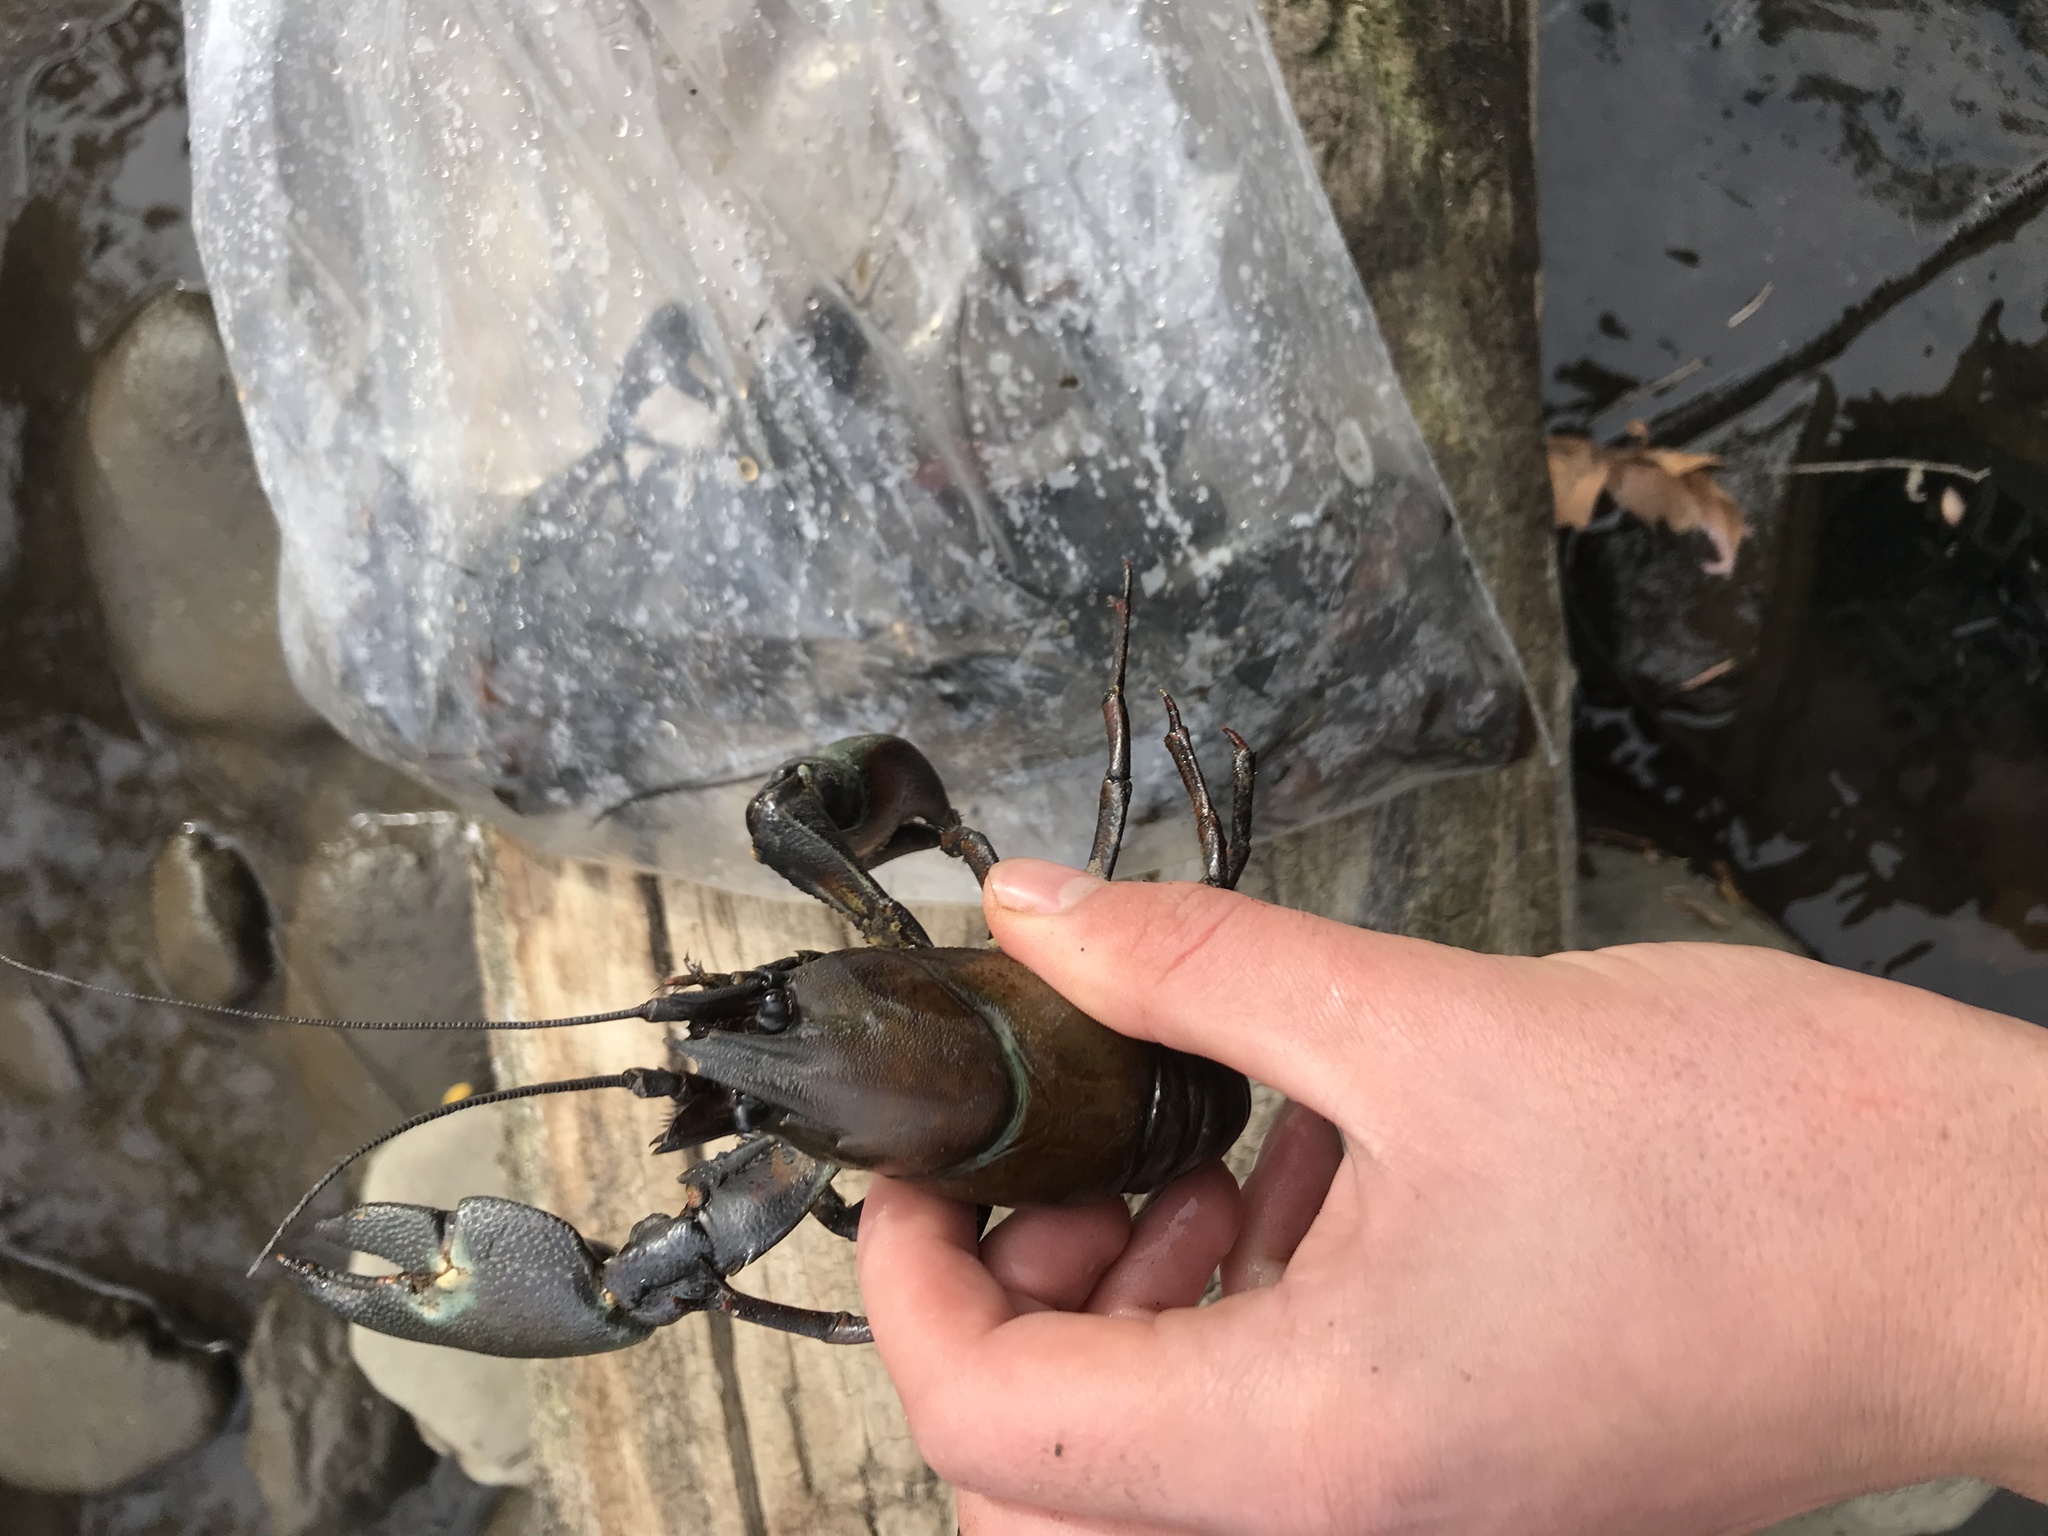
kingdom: Animalia
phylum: Arthropoda
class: Malacostraca
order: Decapoda
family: Astacidae
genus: Pacifastacus
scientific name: Pacifastacus leniusculus
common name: Signal crayfish
